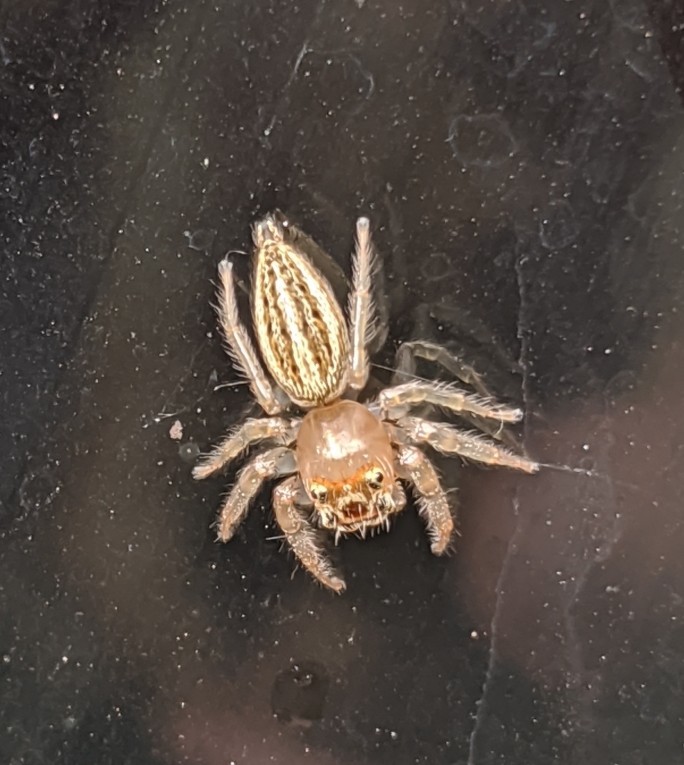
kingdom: Animalia
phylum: Arthropoda
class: Arachnida
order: Araneae
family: Salticidae
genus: Colonus
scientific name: Colonus sylvanus
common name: Jumping spiders
